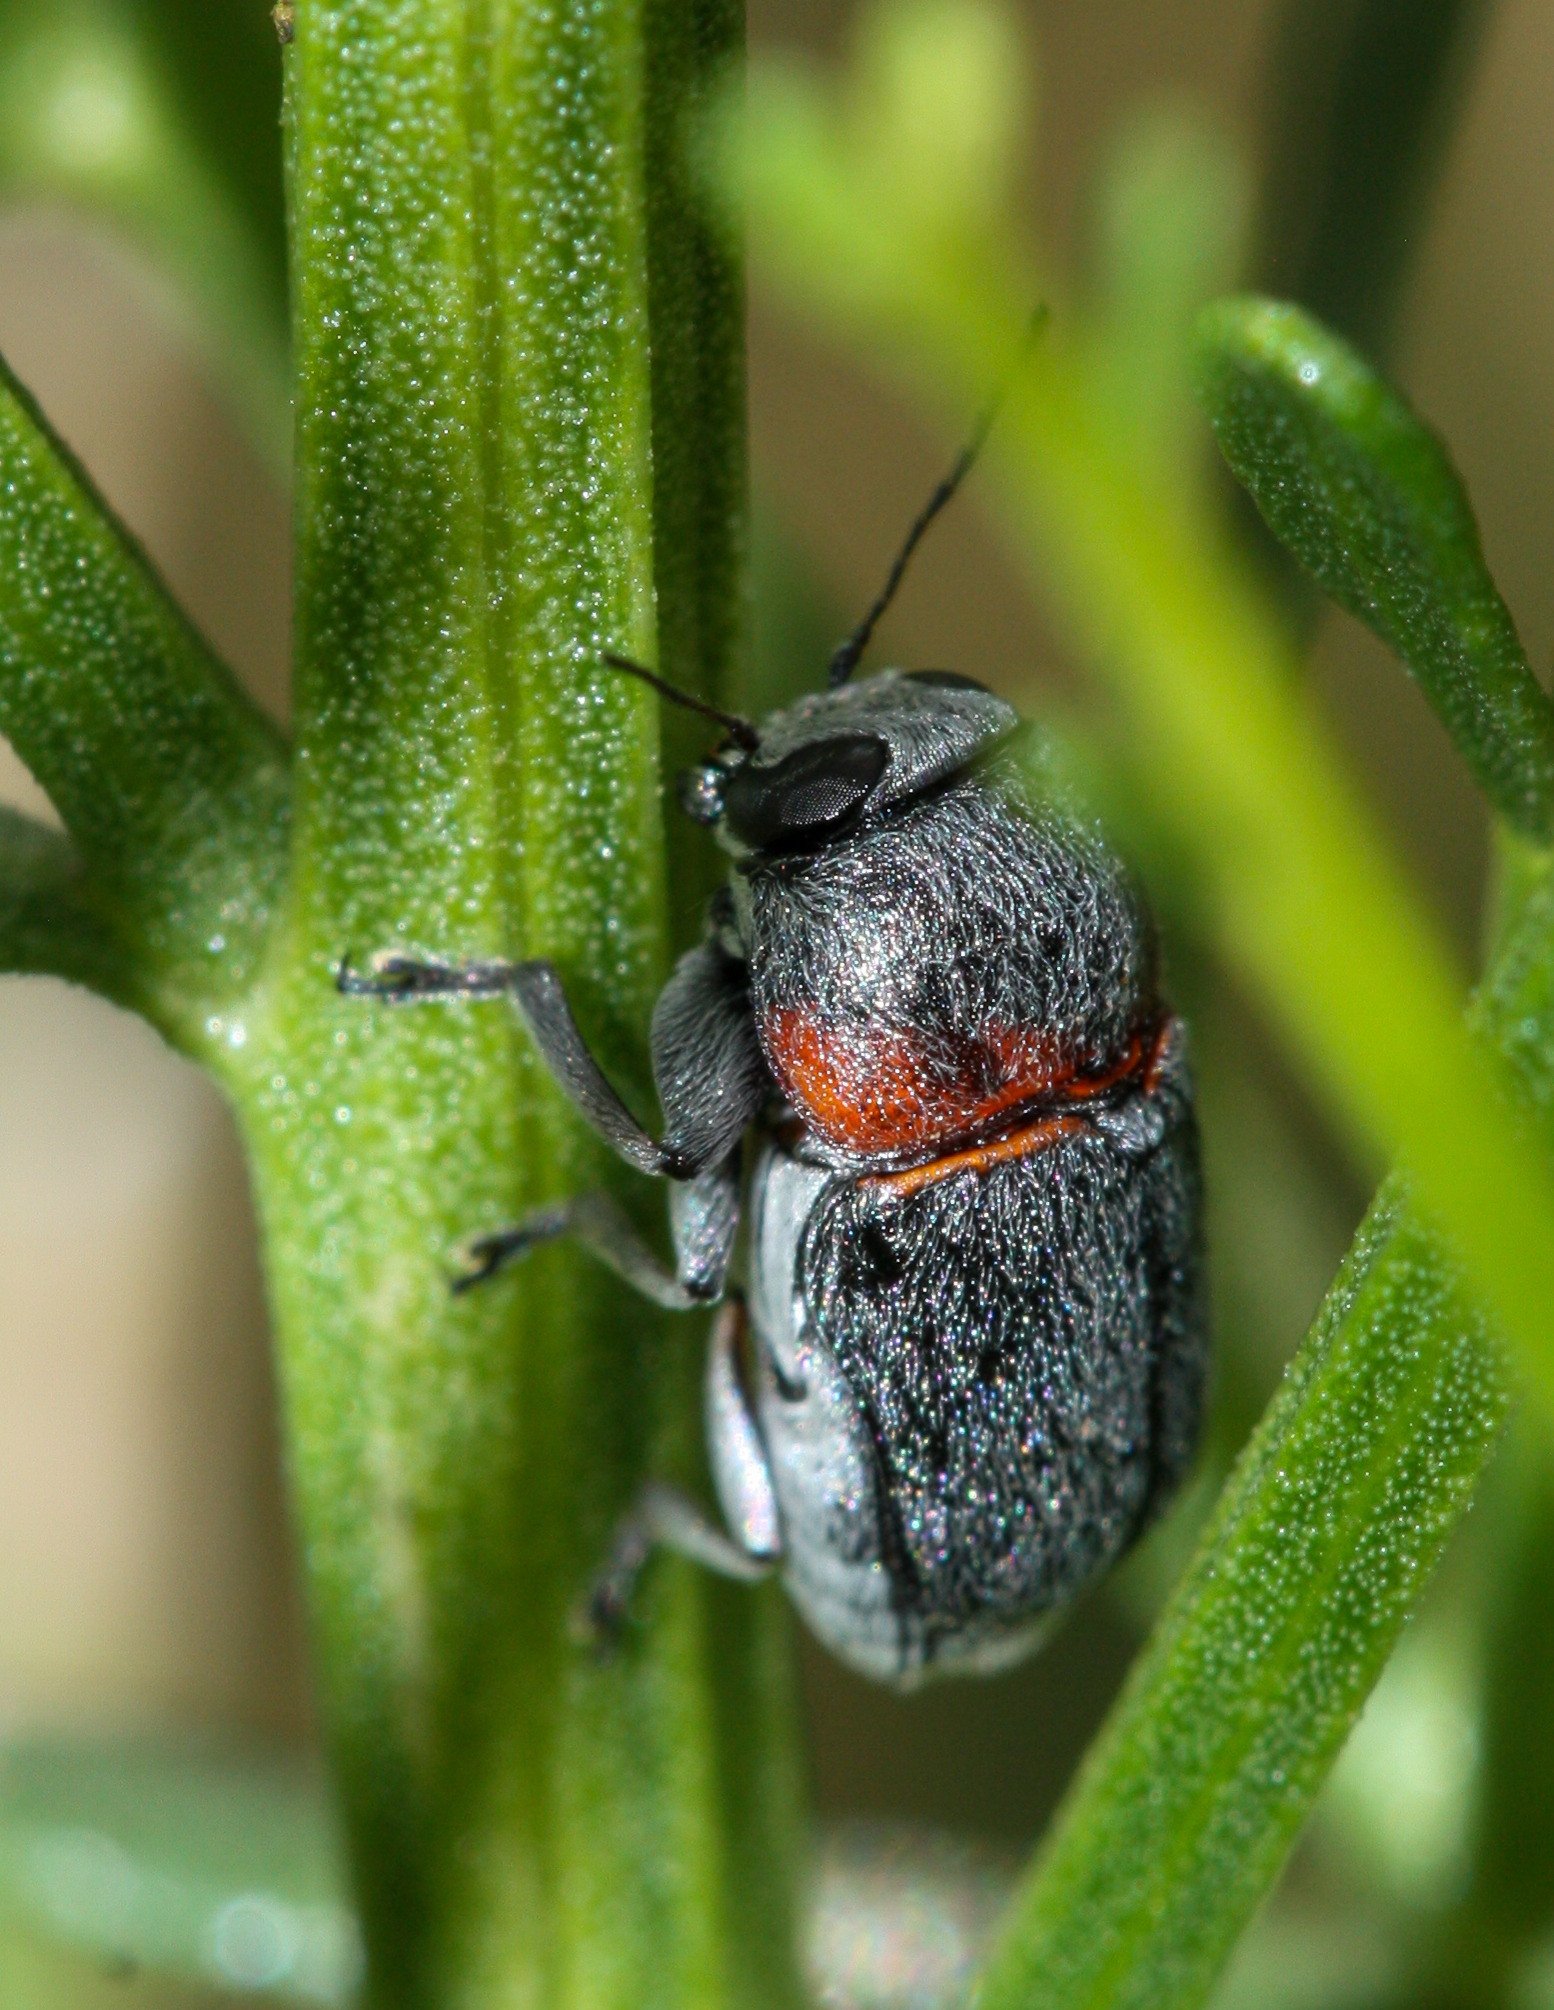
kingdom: Animalia
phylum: Arthropoda
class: Insecta
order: Coleoptera
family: Chrysomelidae
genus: Pachybrachis
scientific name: Pachybrachis thoracicus
